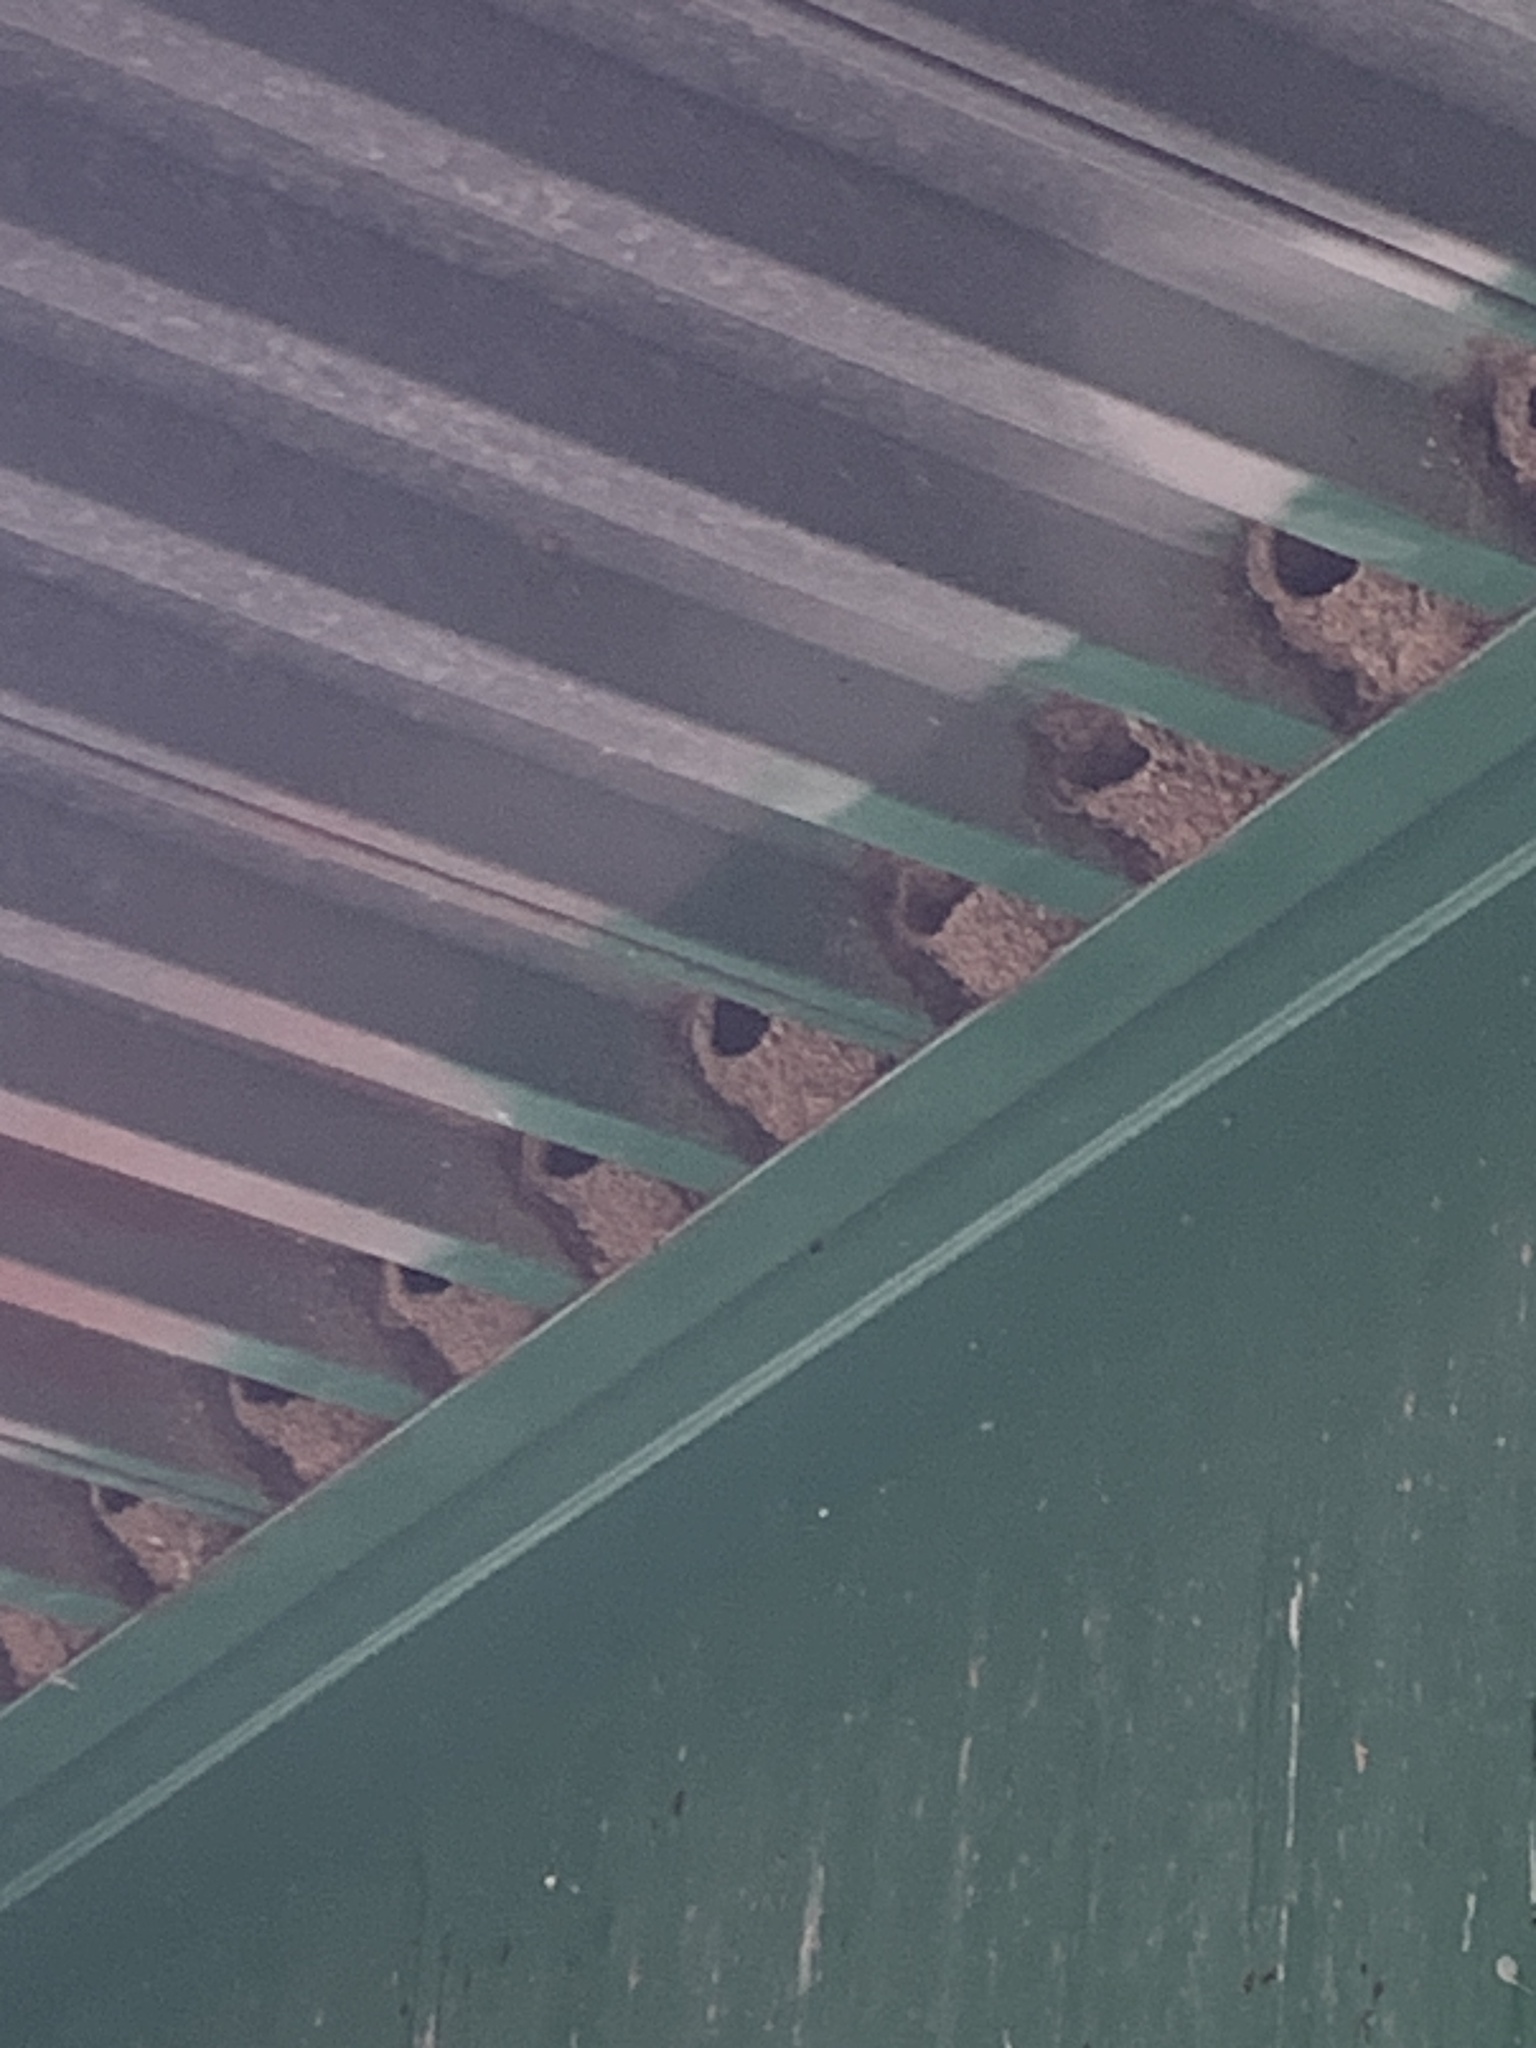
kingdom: Animalia
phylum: Chordata
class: Aves
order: Passeriformes
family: Hirundinidae
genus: Petrochelidon
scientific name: Petrochelidon pyrrhonota
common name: American cliff swallow
